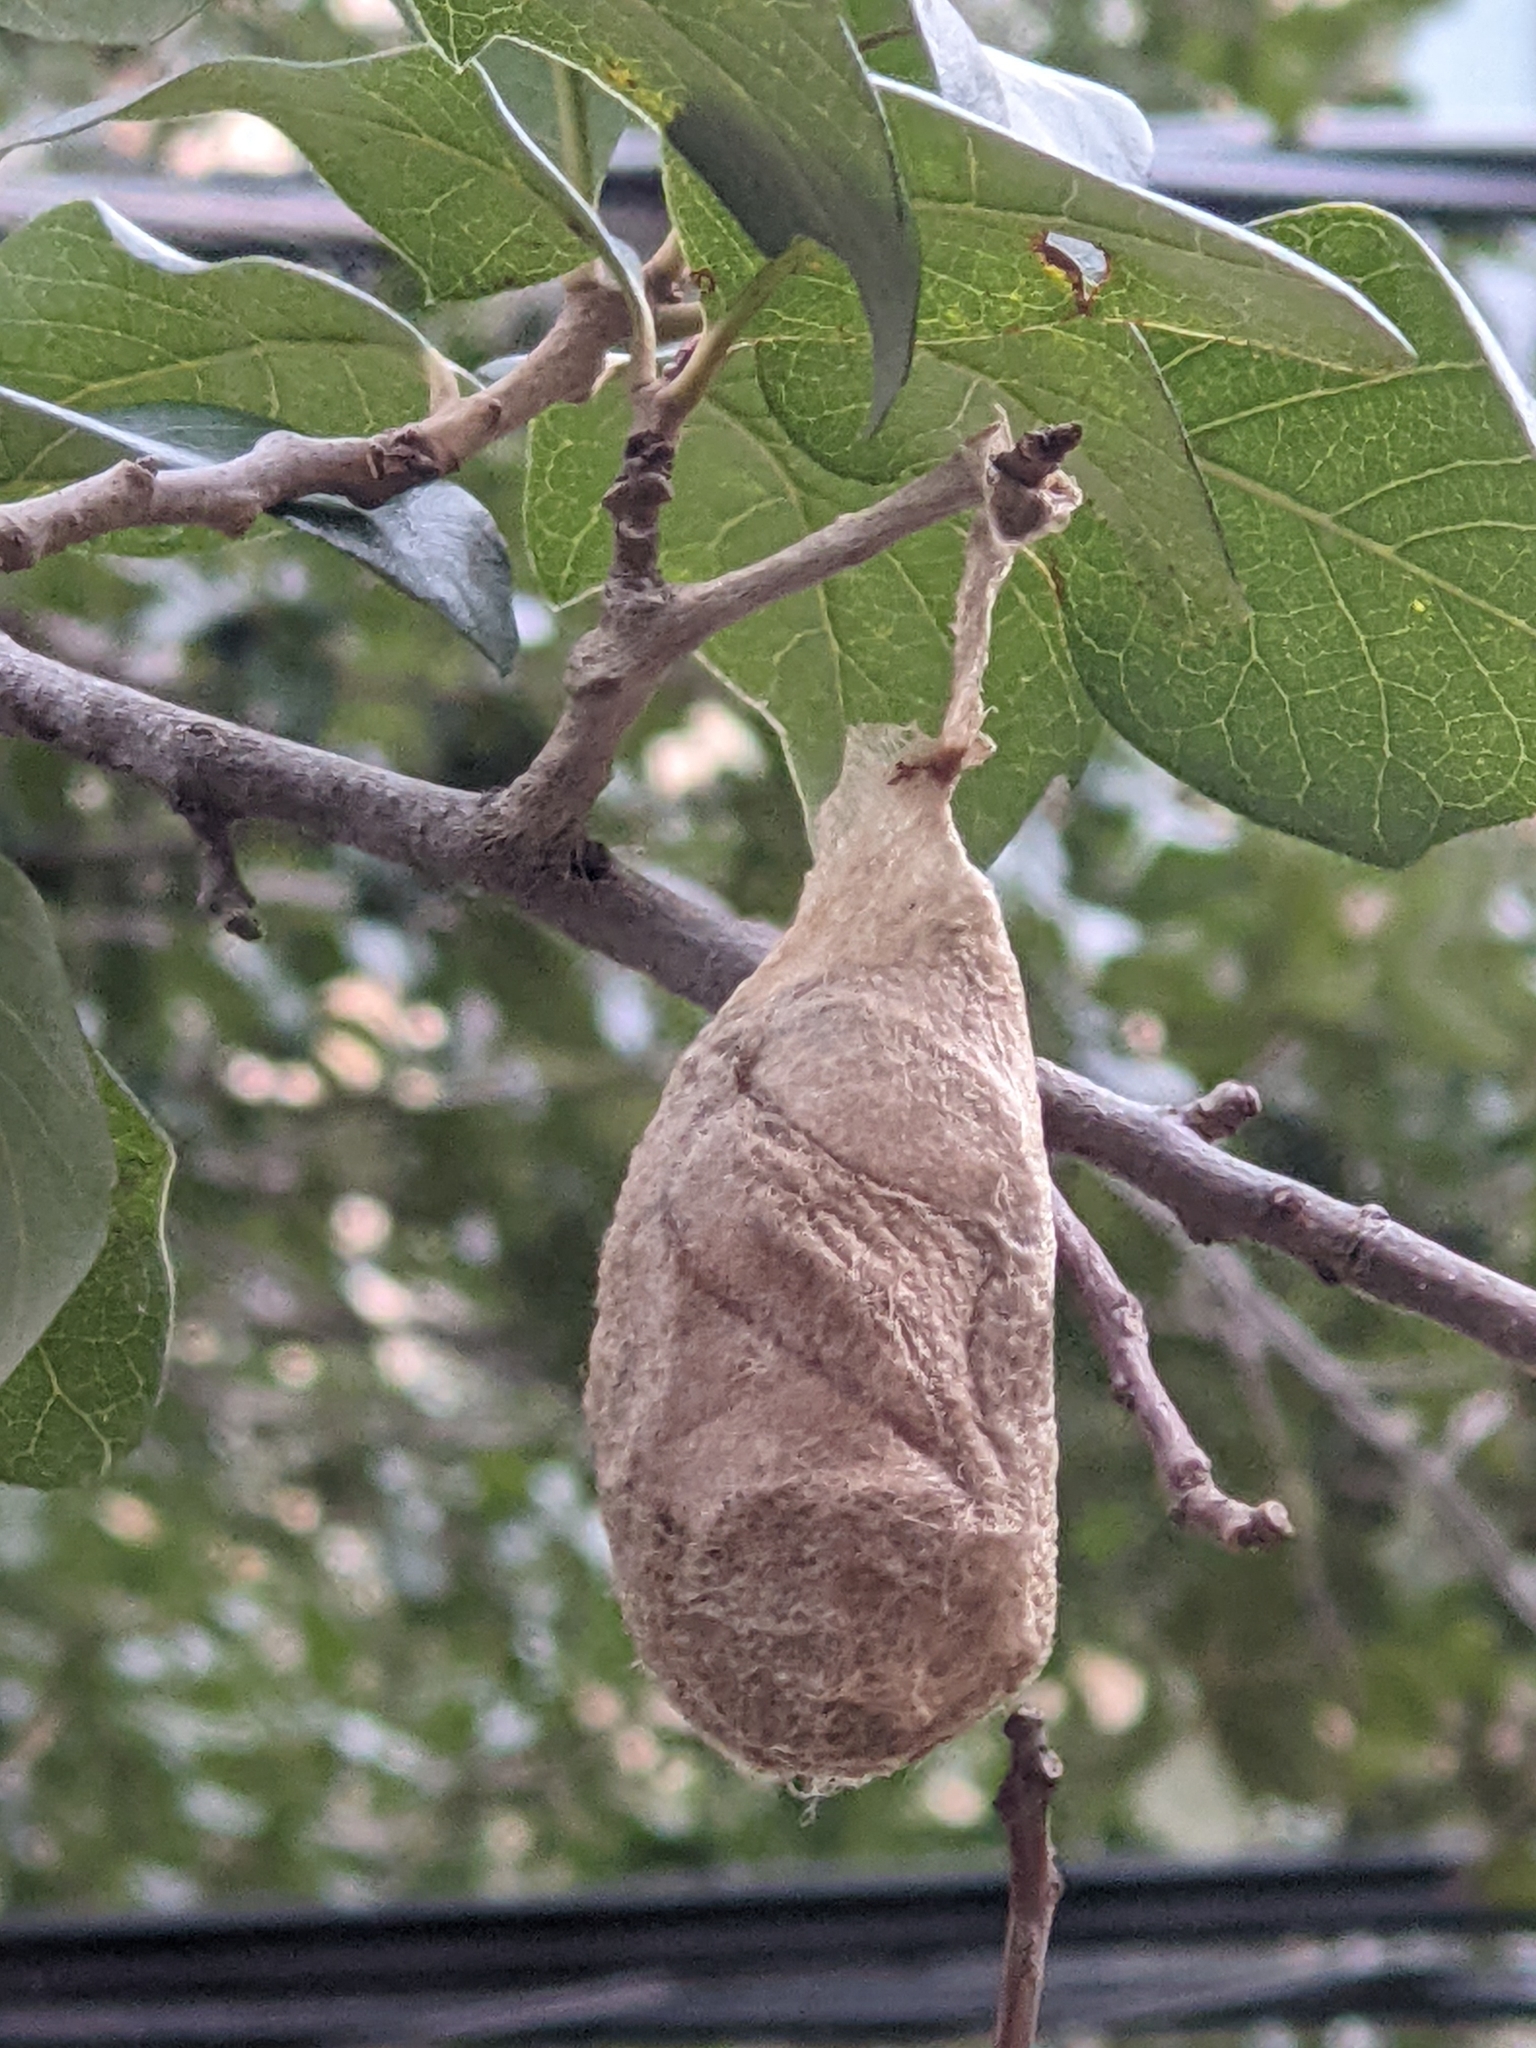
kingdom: Animalia
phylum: Arthropoda
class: Insecta
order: Lepidoptera
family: Saturniidae
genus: Antheraea
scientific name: Antheraea polyphemus
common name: Polyphemus moth
